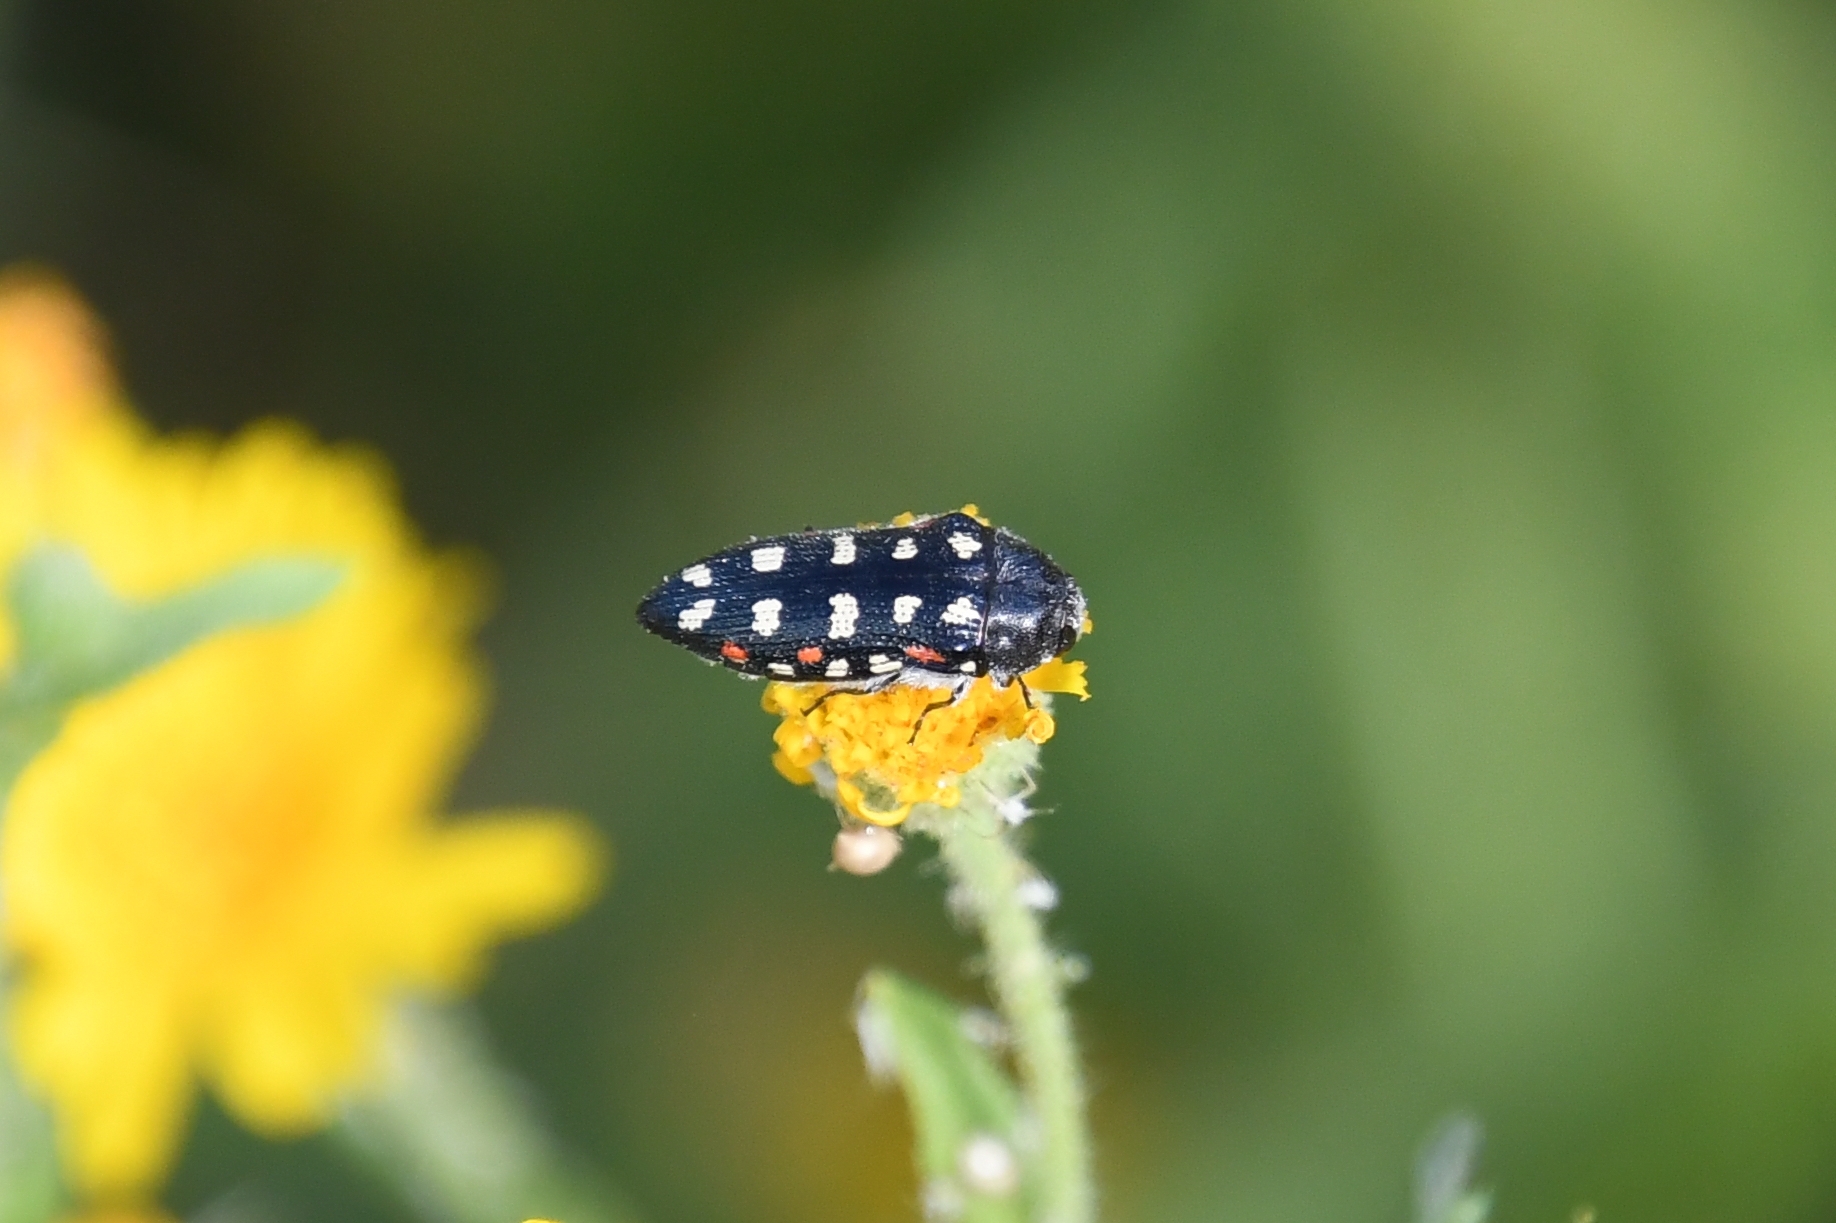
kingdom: Animalia
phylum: Arthropoda
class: Insecta
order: Coleoptera
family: Buprestidae
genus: Acmaeodera
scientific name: Acmaeodera gibbula
